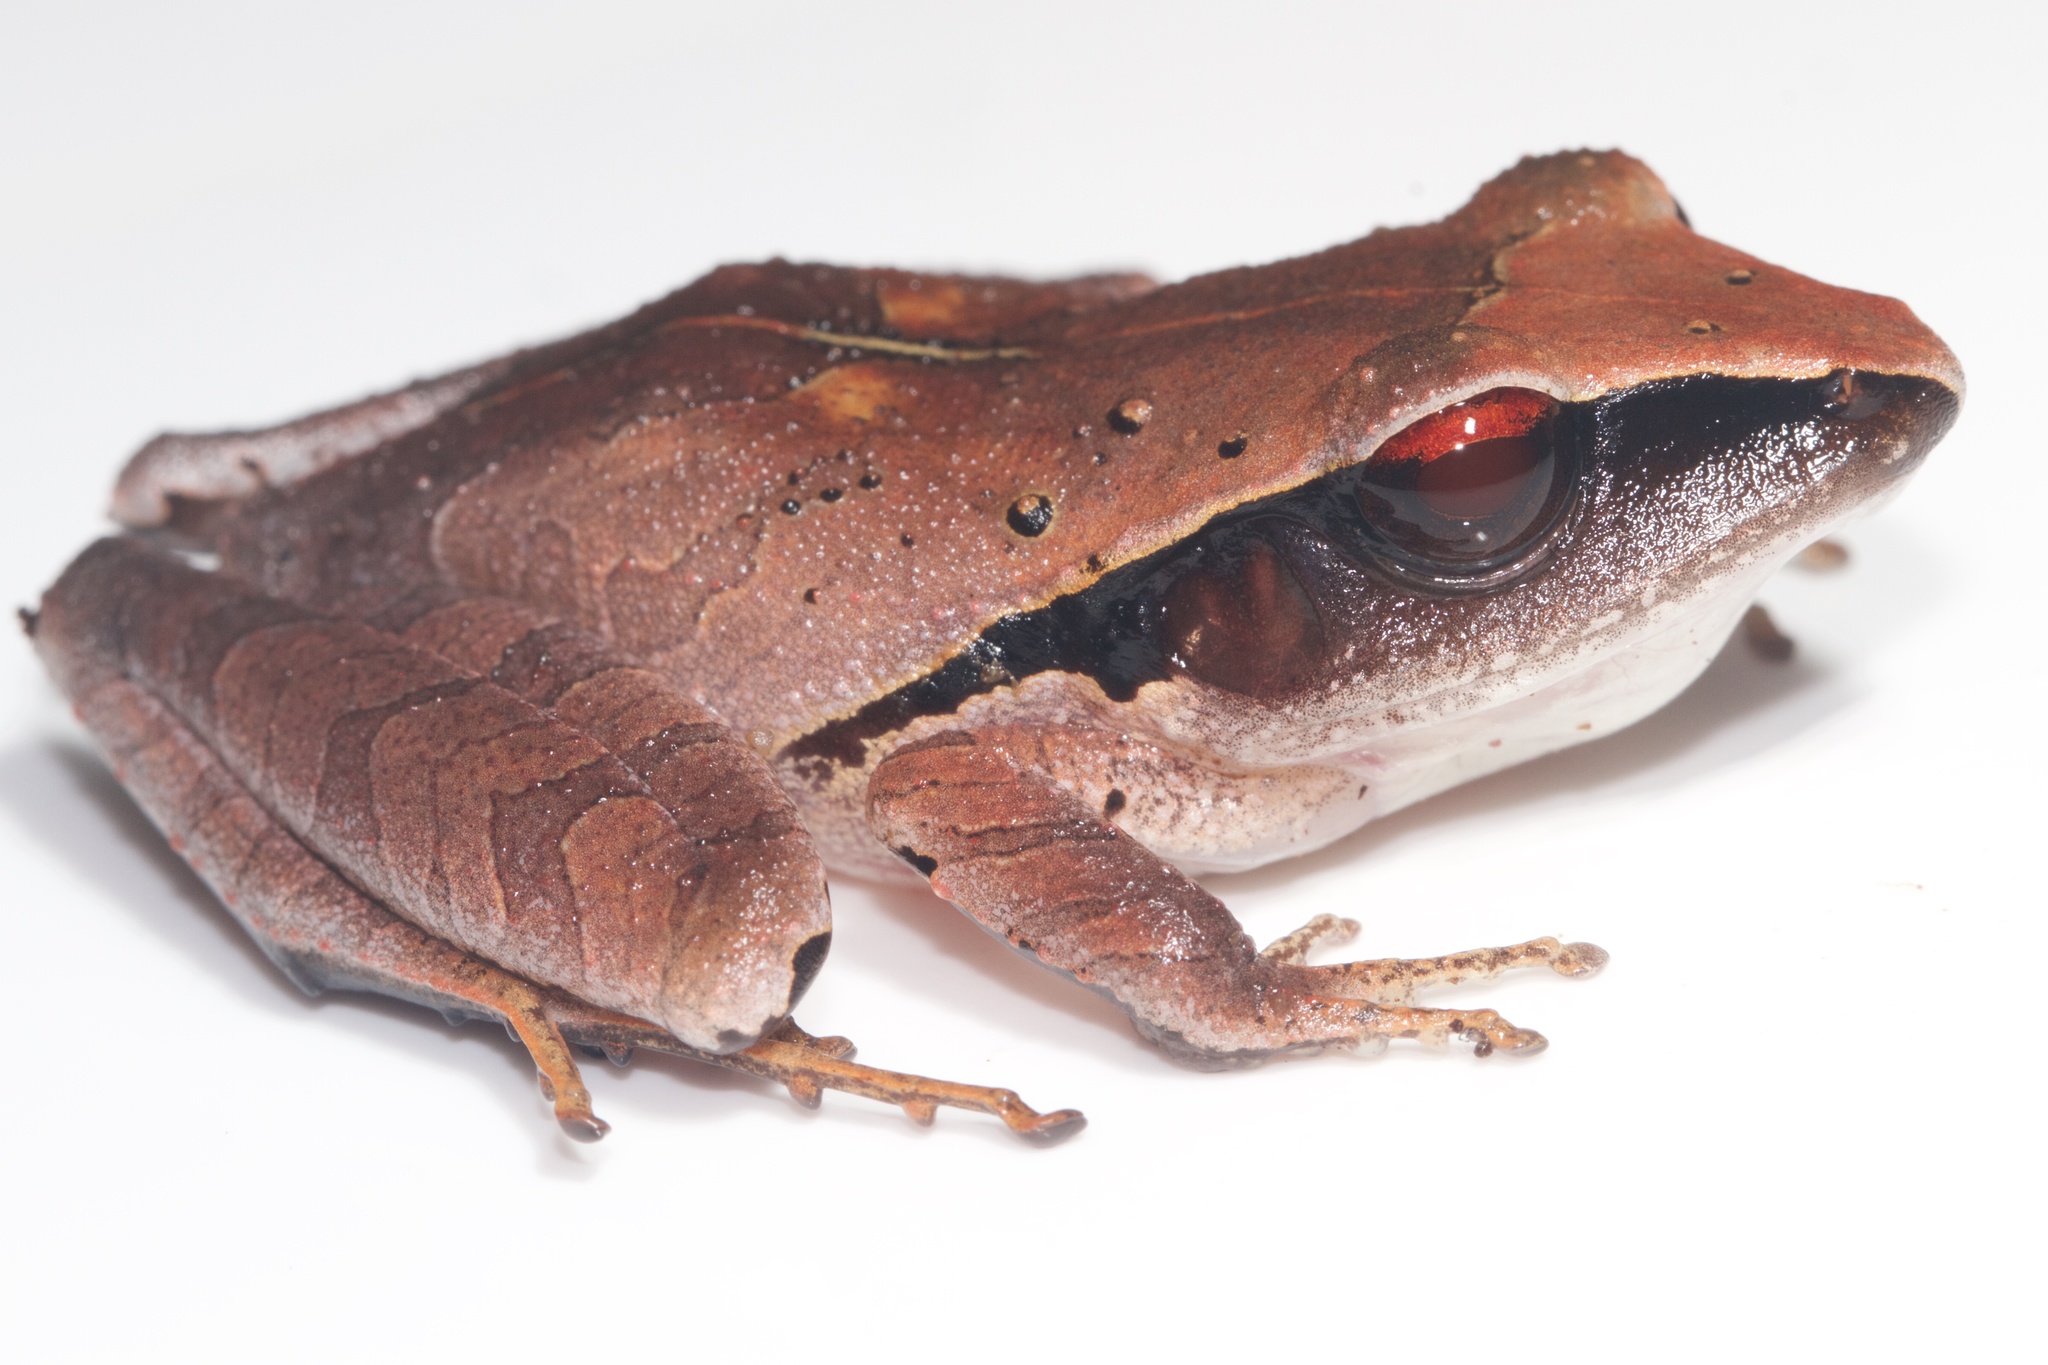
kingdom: Animalia
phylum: Chordata
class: Amphibia
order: Anura
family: Craugastoridae
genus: Craugastor
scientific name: Craugastor gollmeri
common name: Evergreen robber frog
